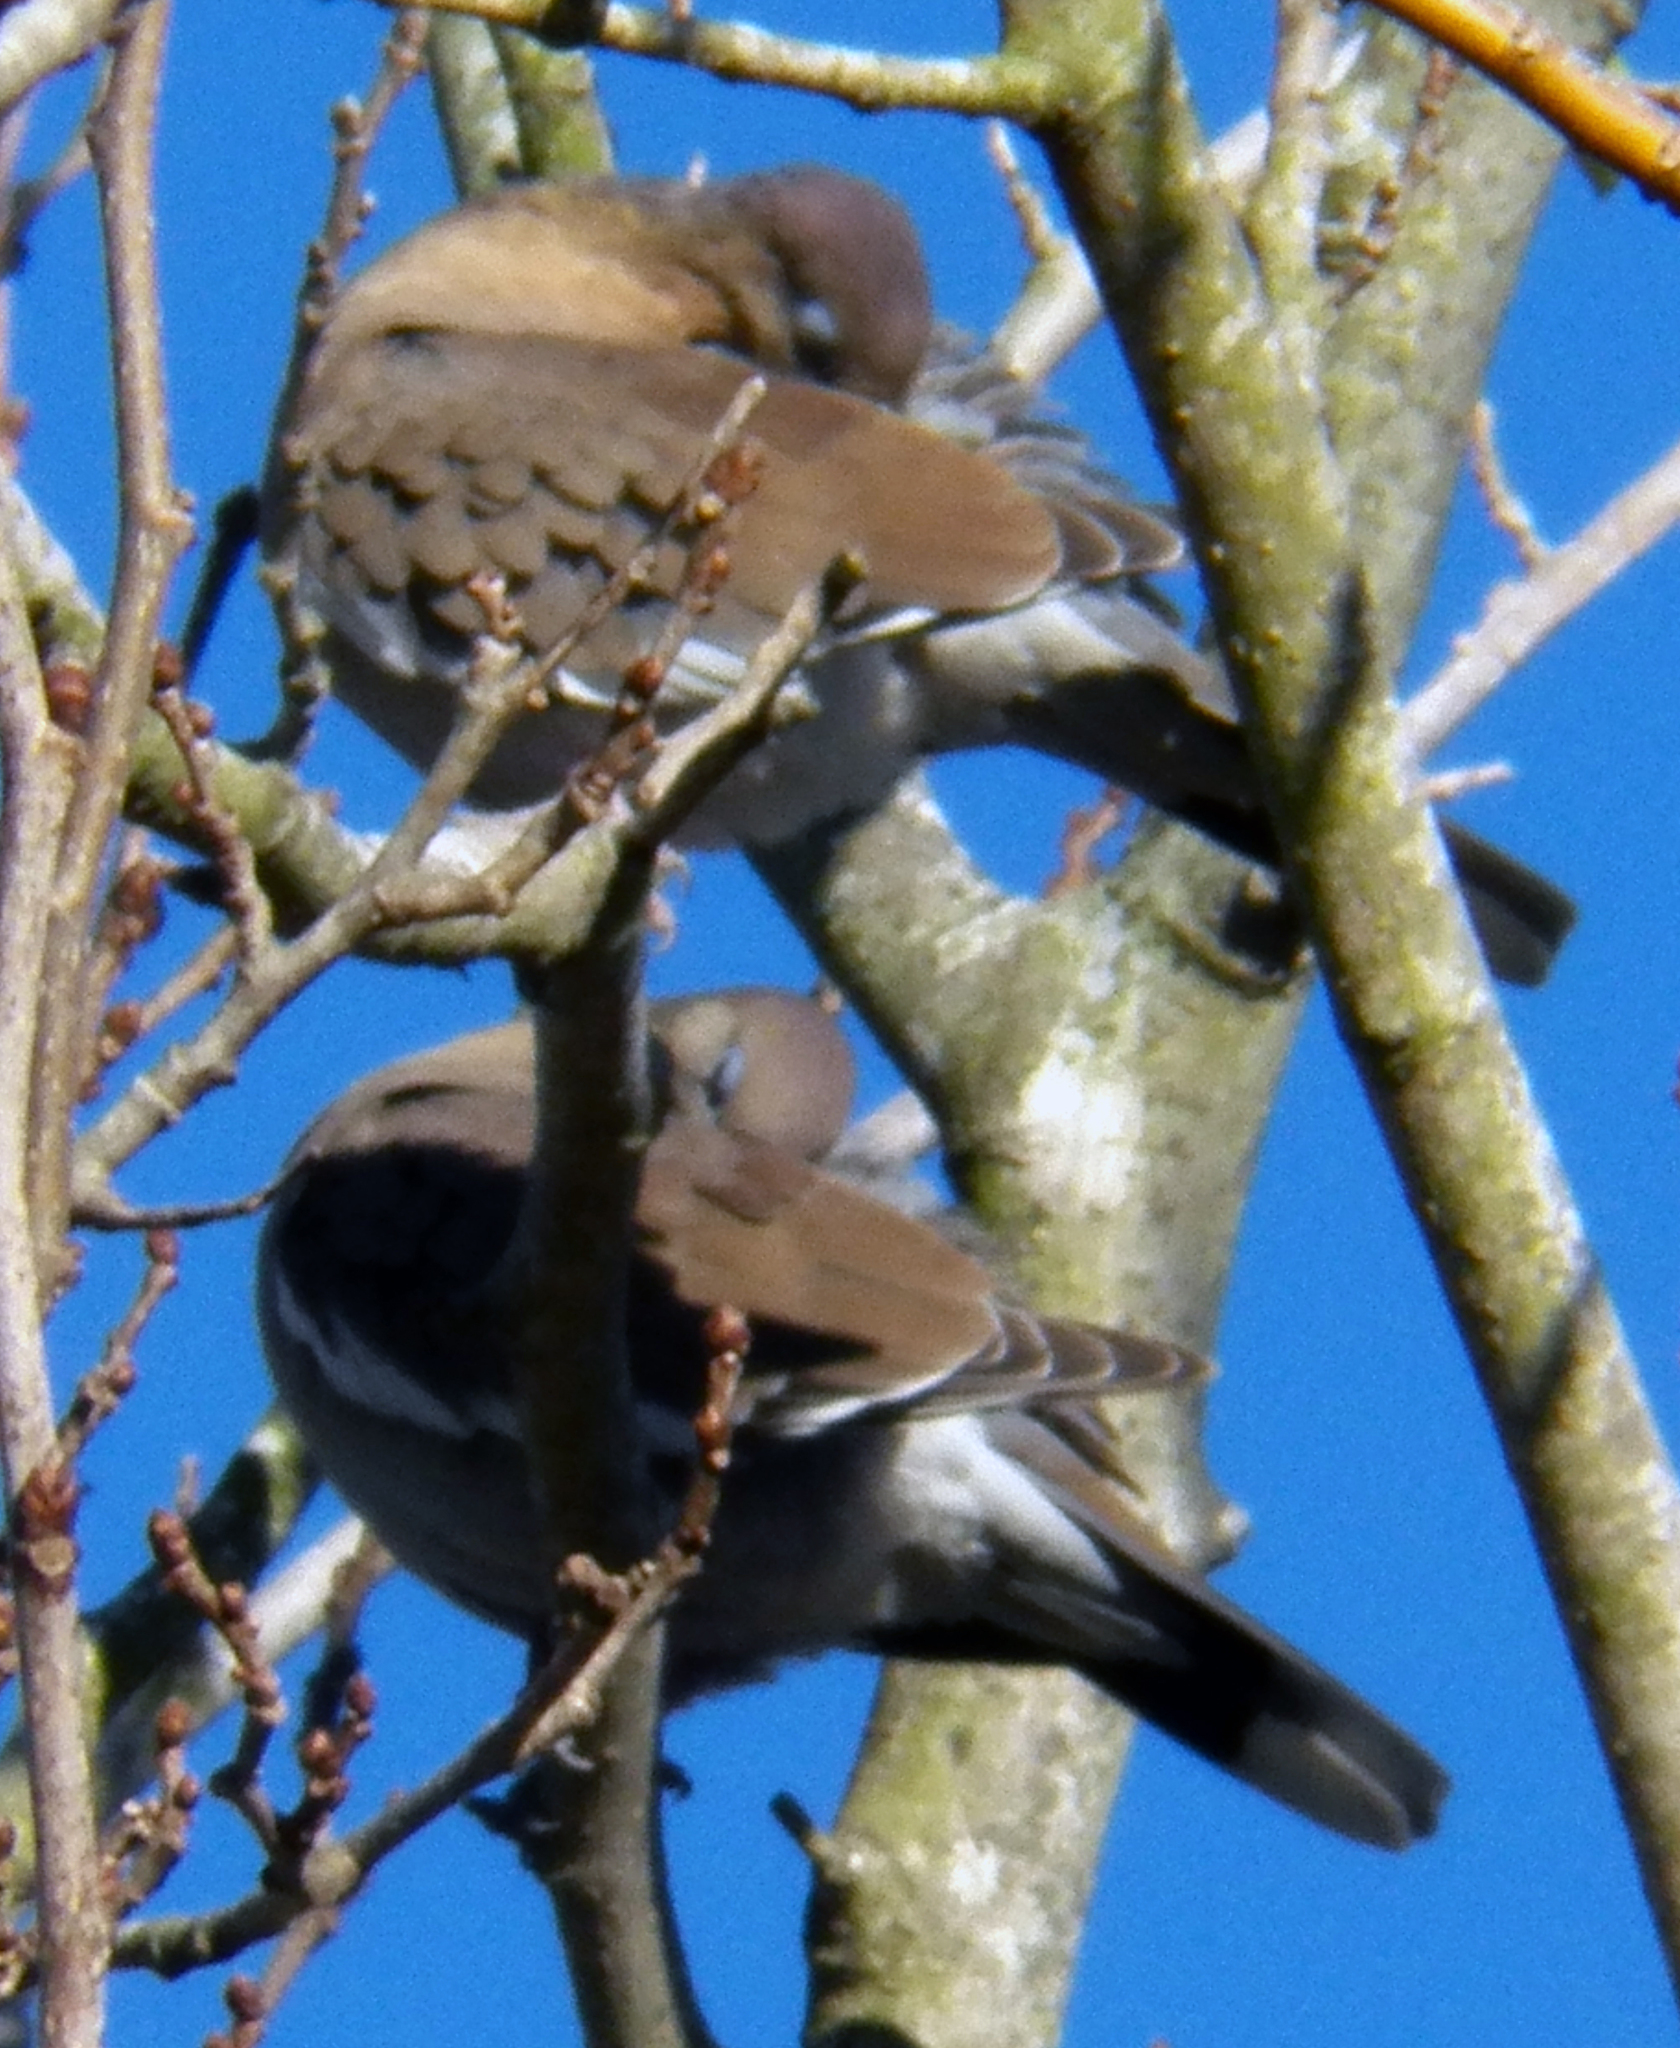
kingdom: Animalia
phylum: Chordata
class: Aves
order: Columbiformes
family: Columbidae
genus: Zenaida
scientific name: Zenaida asiatica
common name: White-winged dove
